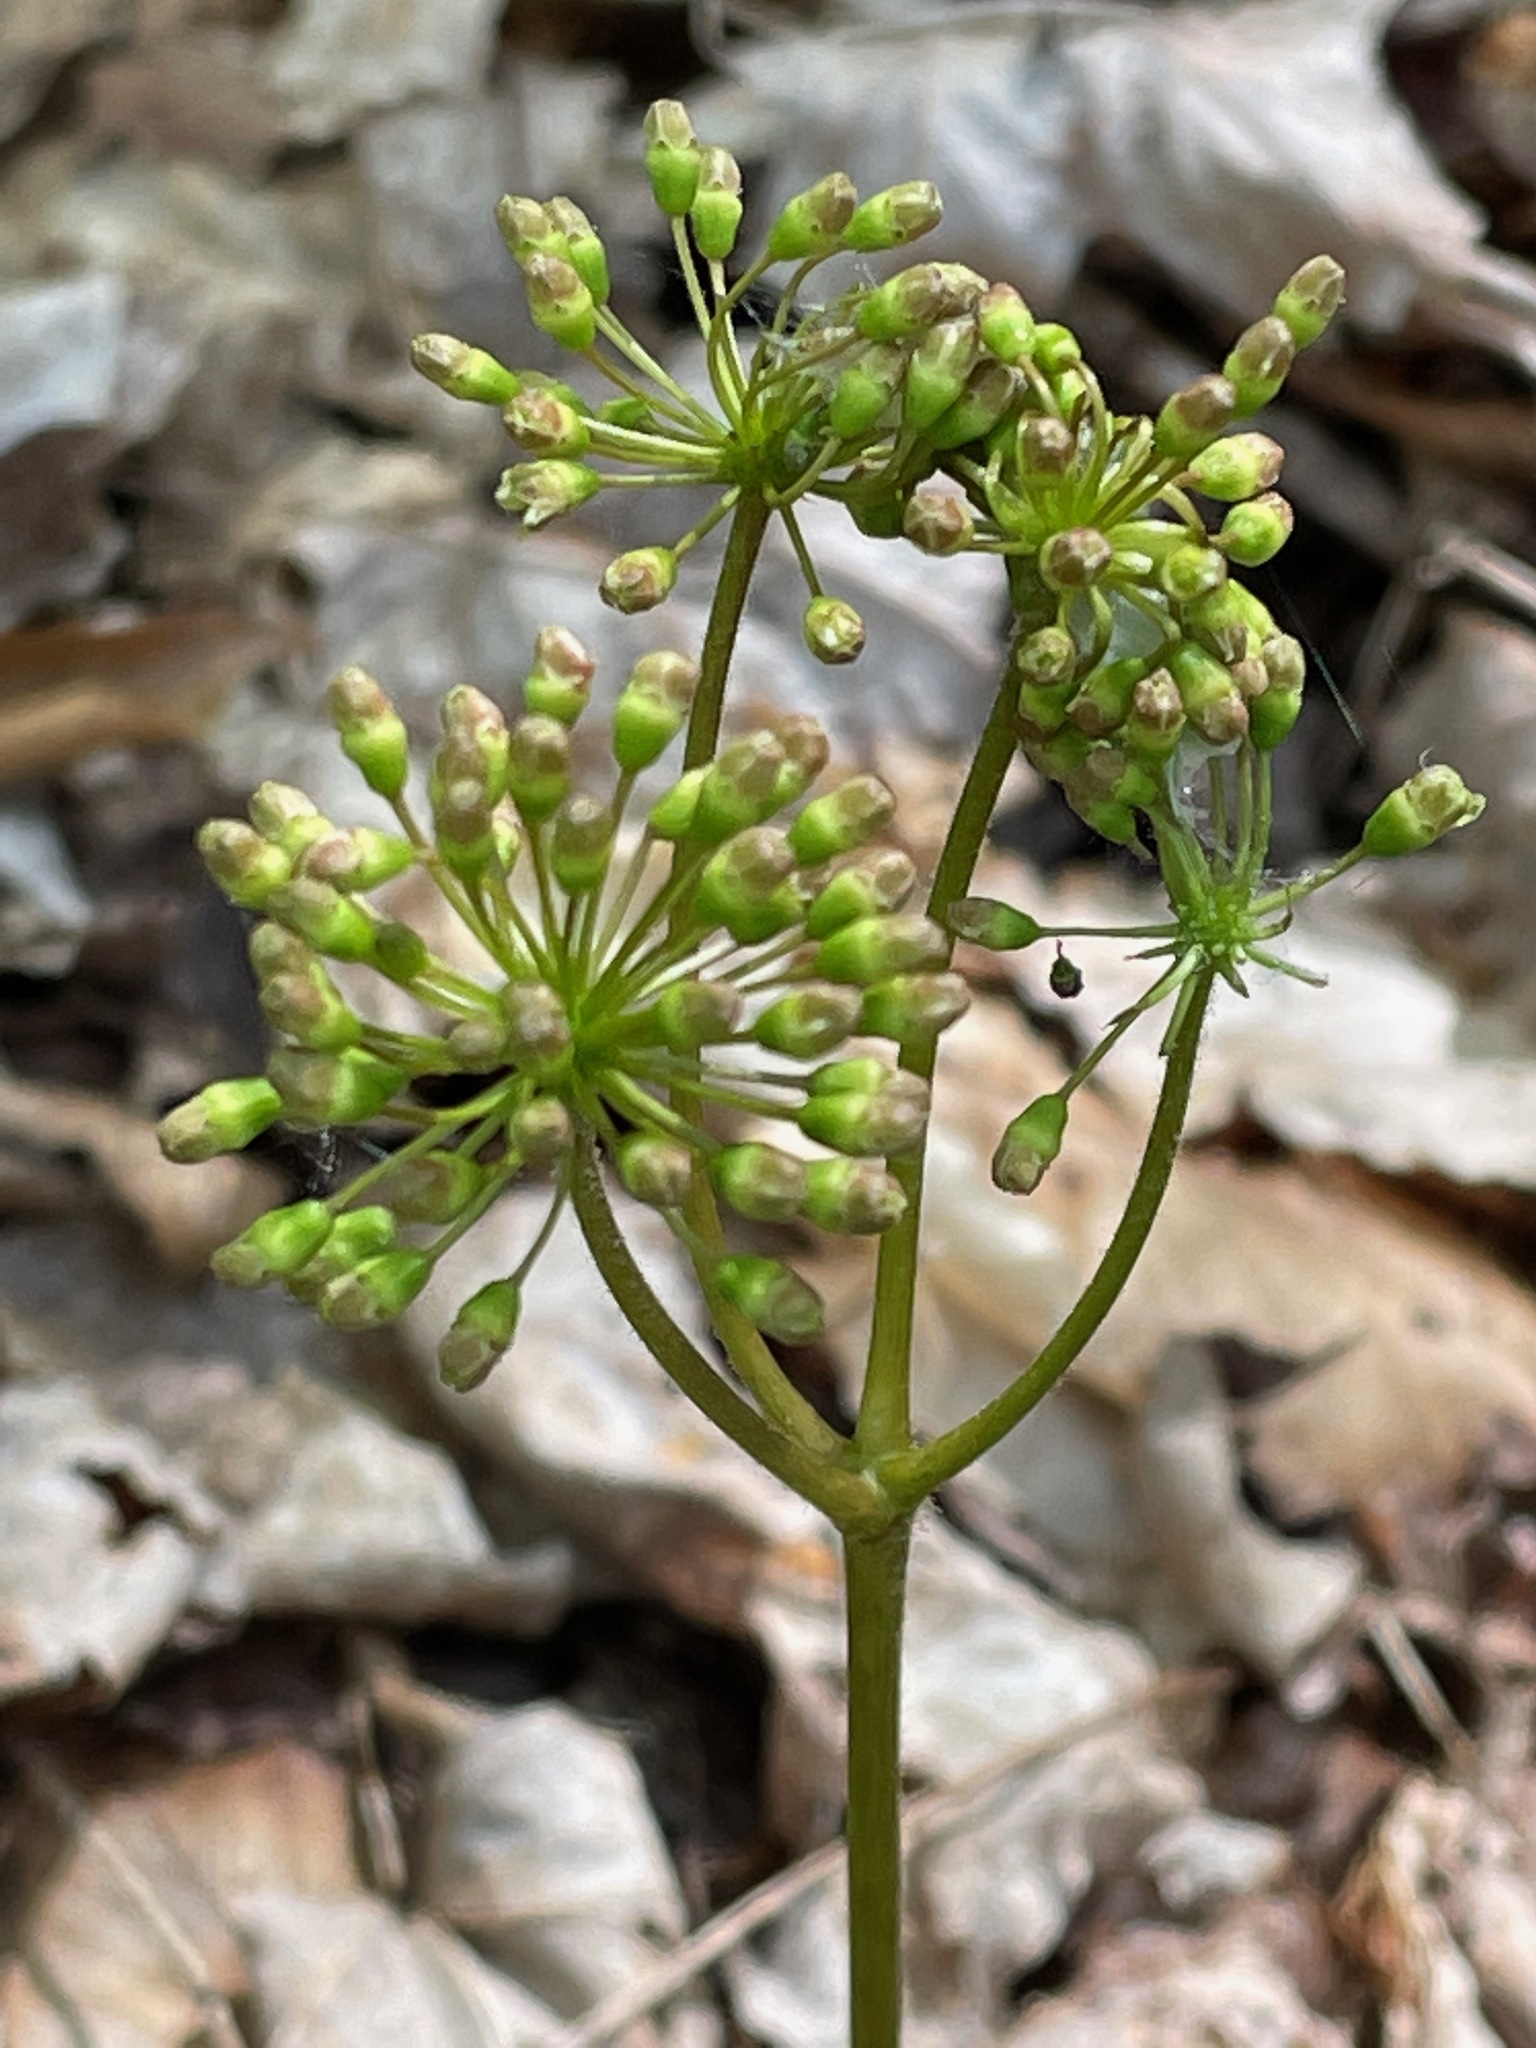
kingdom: Plantae
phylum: Tracheophyta
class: Magnoliopsida
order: Apiales
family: Araliaceae
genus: Aralia
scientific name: Aralia nudicaulis
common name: Wild sarsaparilla
